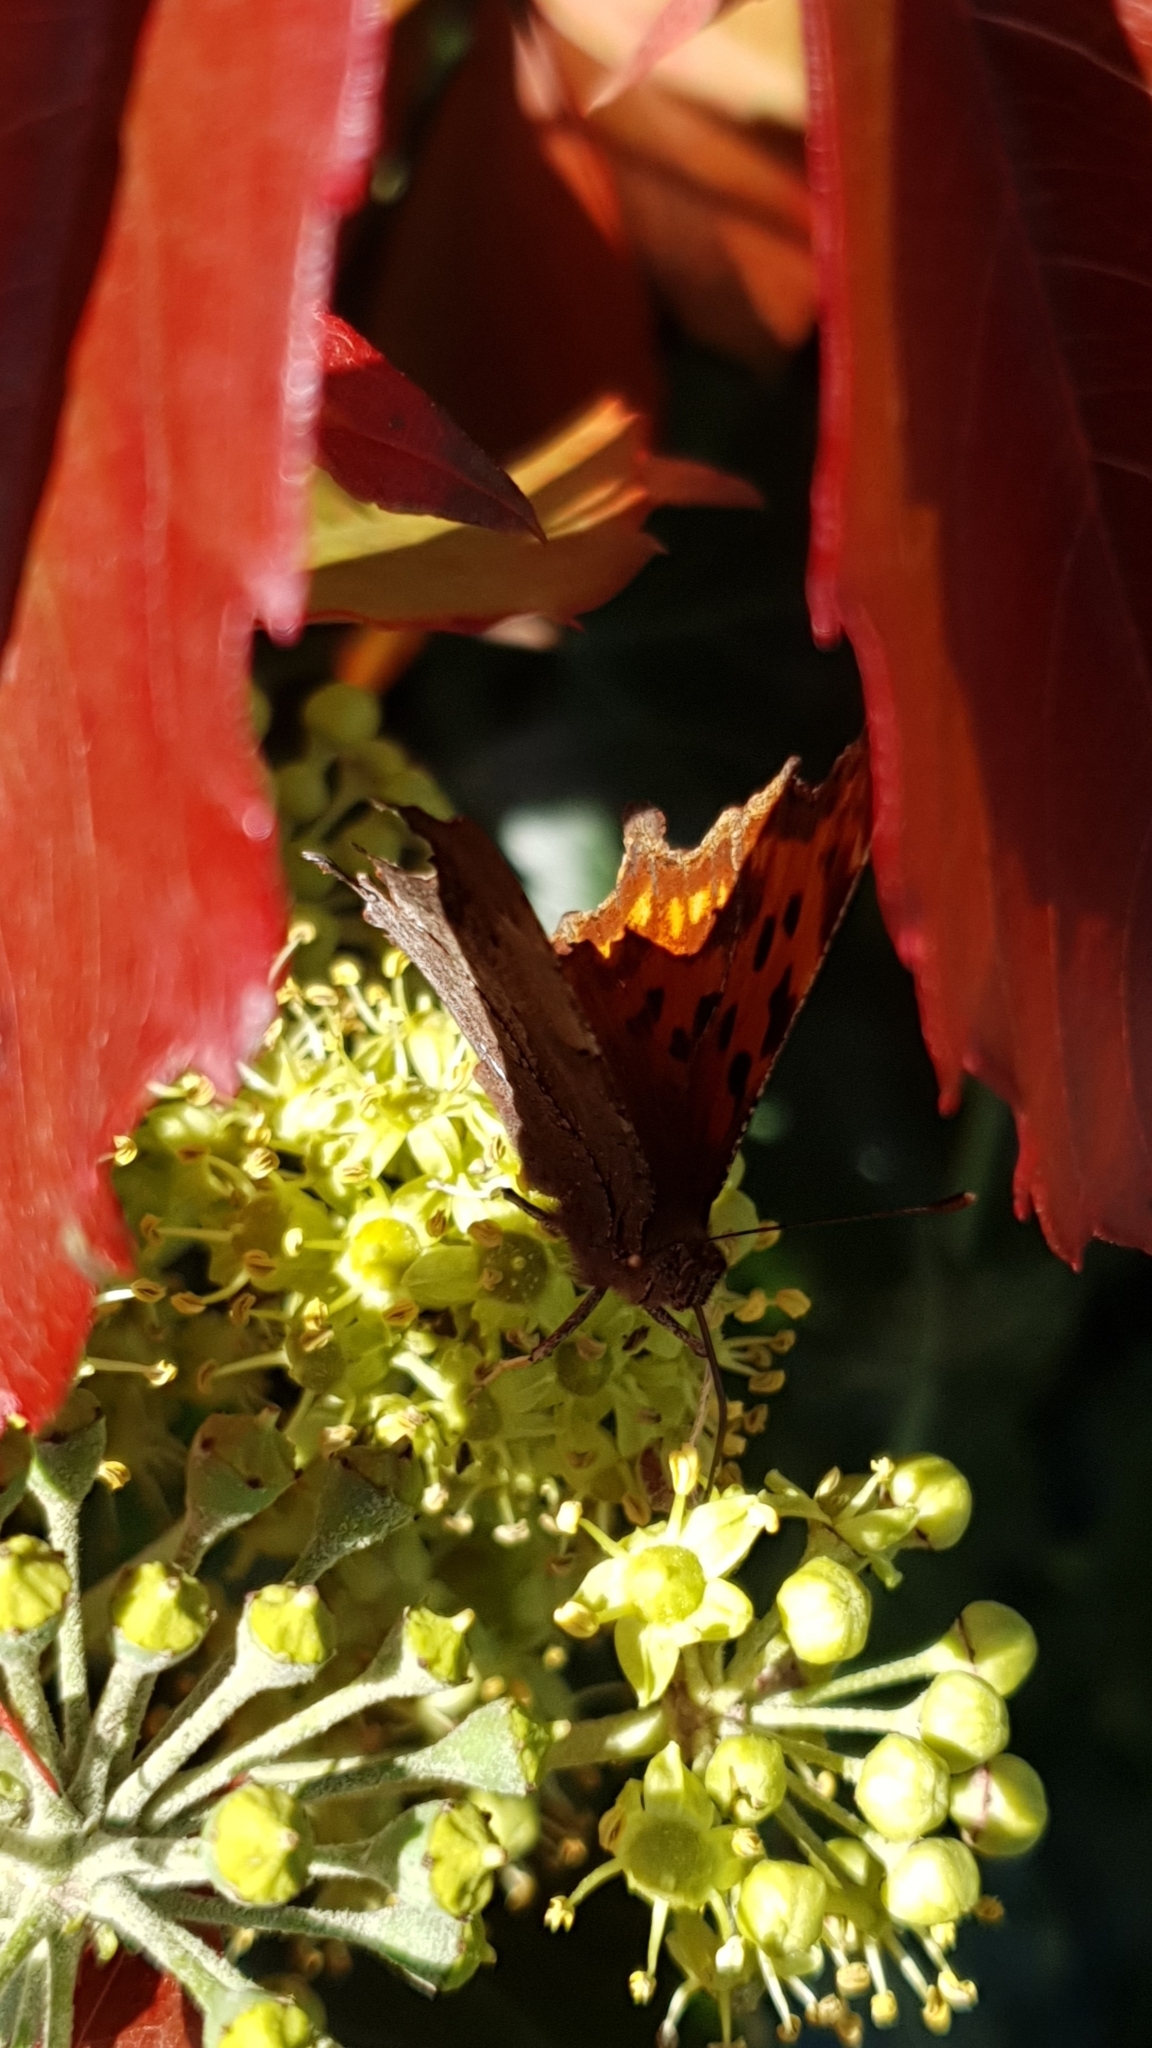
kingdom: Animalia
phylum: Arthropoda
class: Insecta
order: Lepidoptera
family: Nymphalidae
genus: Polygonia
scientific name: Polygonia c-album
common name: Comma
